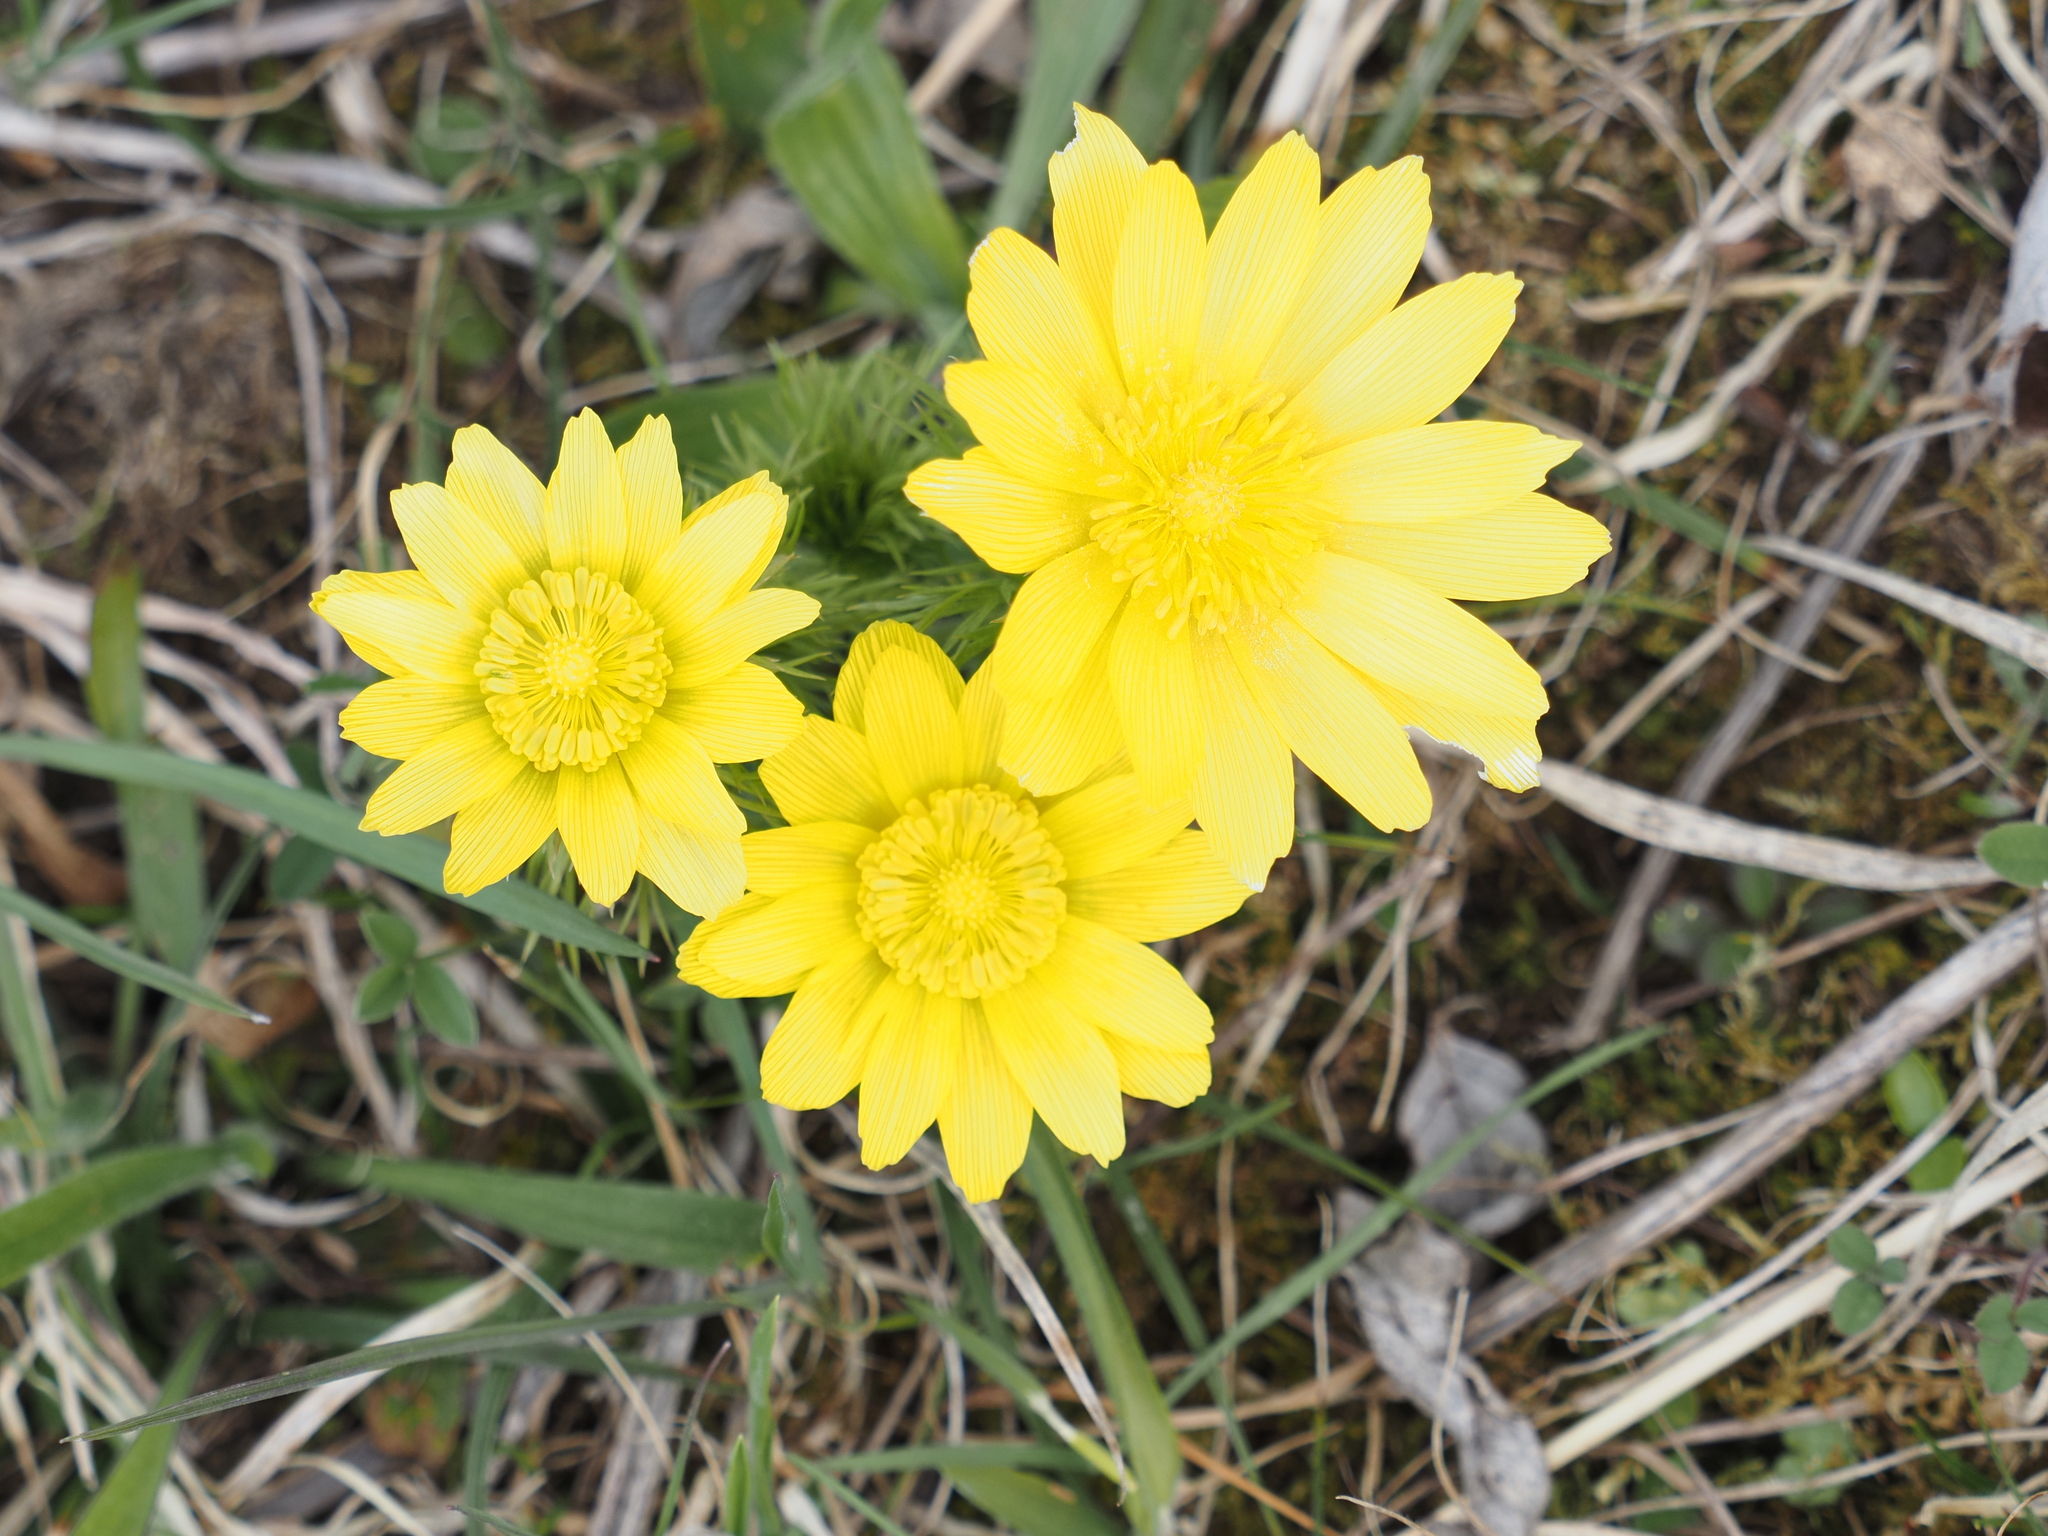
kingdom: Plantae
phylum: Tracheophyta
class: Magnoliopsida
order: Ranunculales
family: Ranunculaceae
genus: Adonis
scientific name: Adonis vernalis
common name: Yellow pheasants-eye
